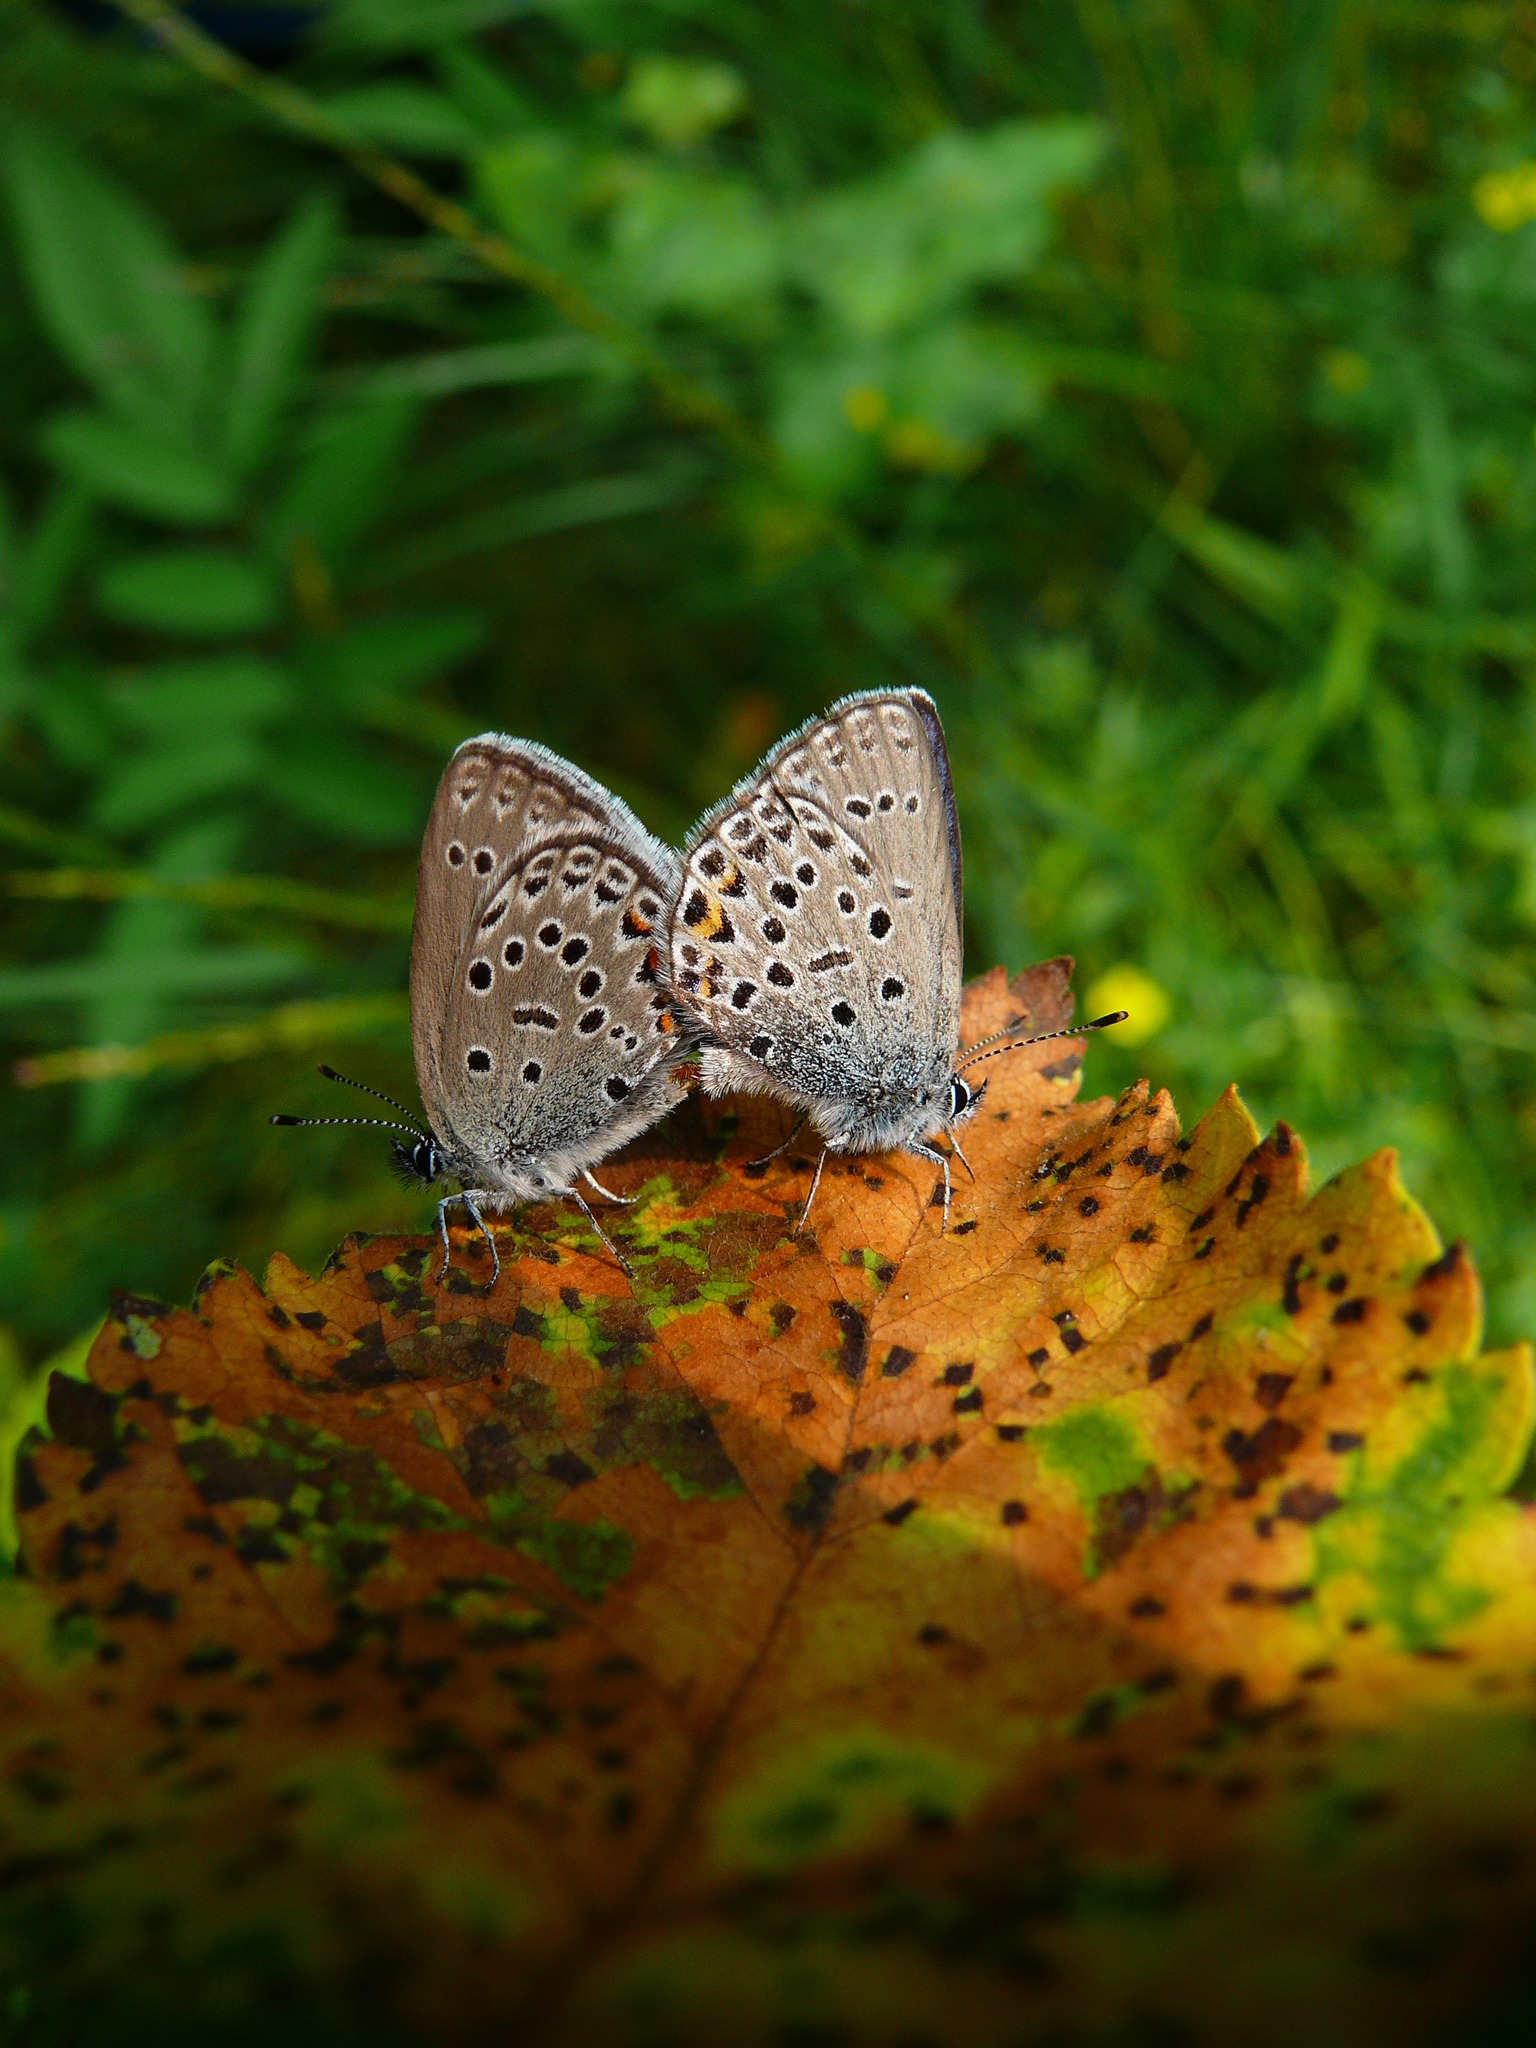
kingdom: Animalia
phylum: Arthropoda
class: Insecta
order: Lepidoptera
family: Lycaenidae
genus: Vacciniina
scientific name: Vacciniina optilete
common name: Cranberry blue
